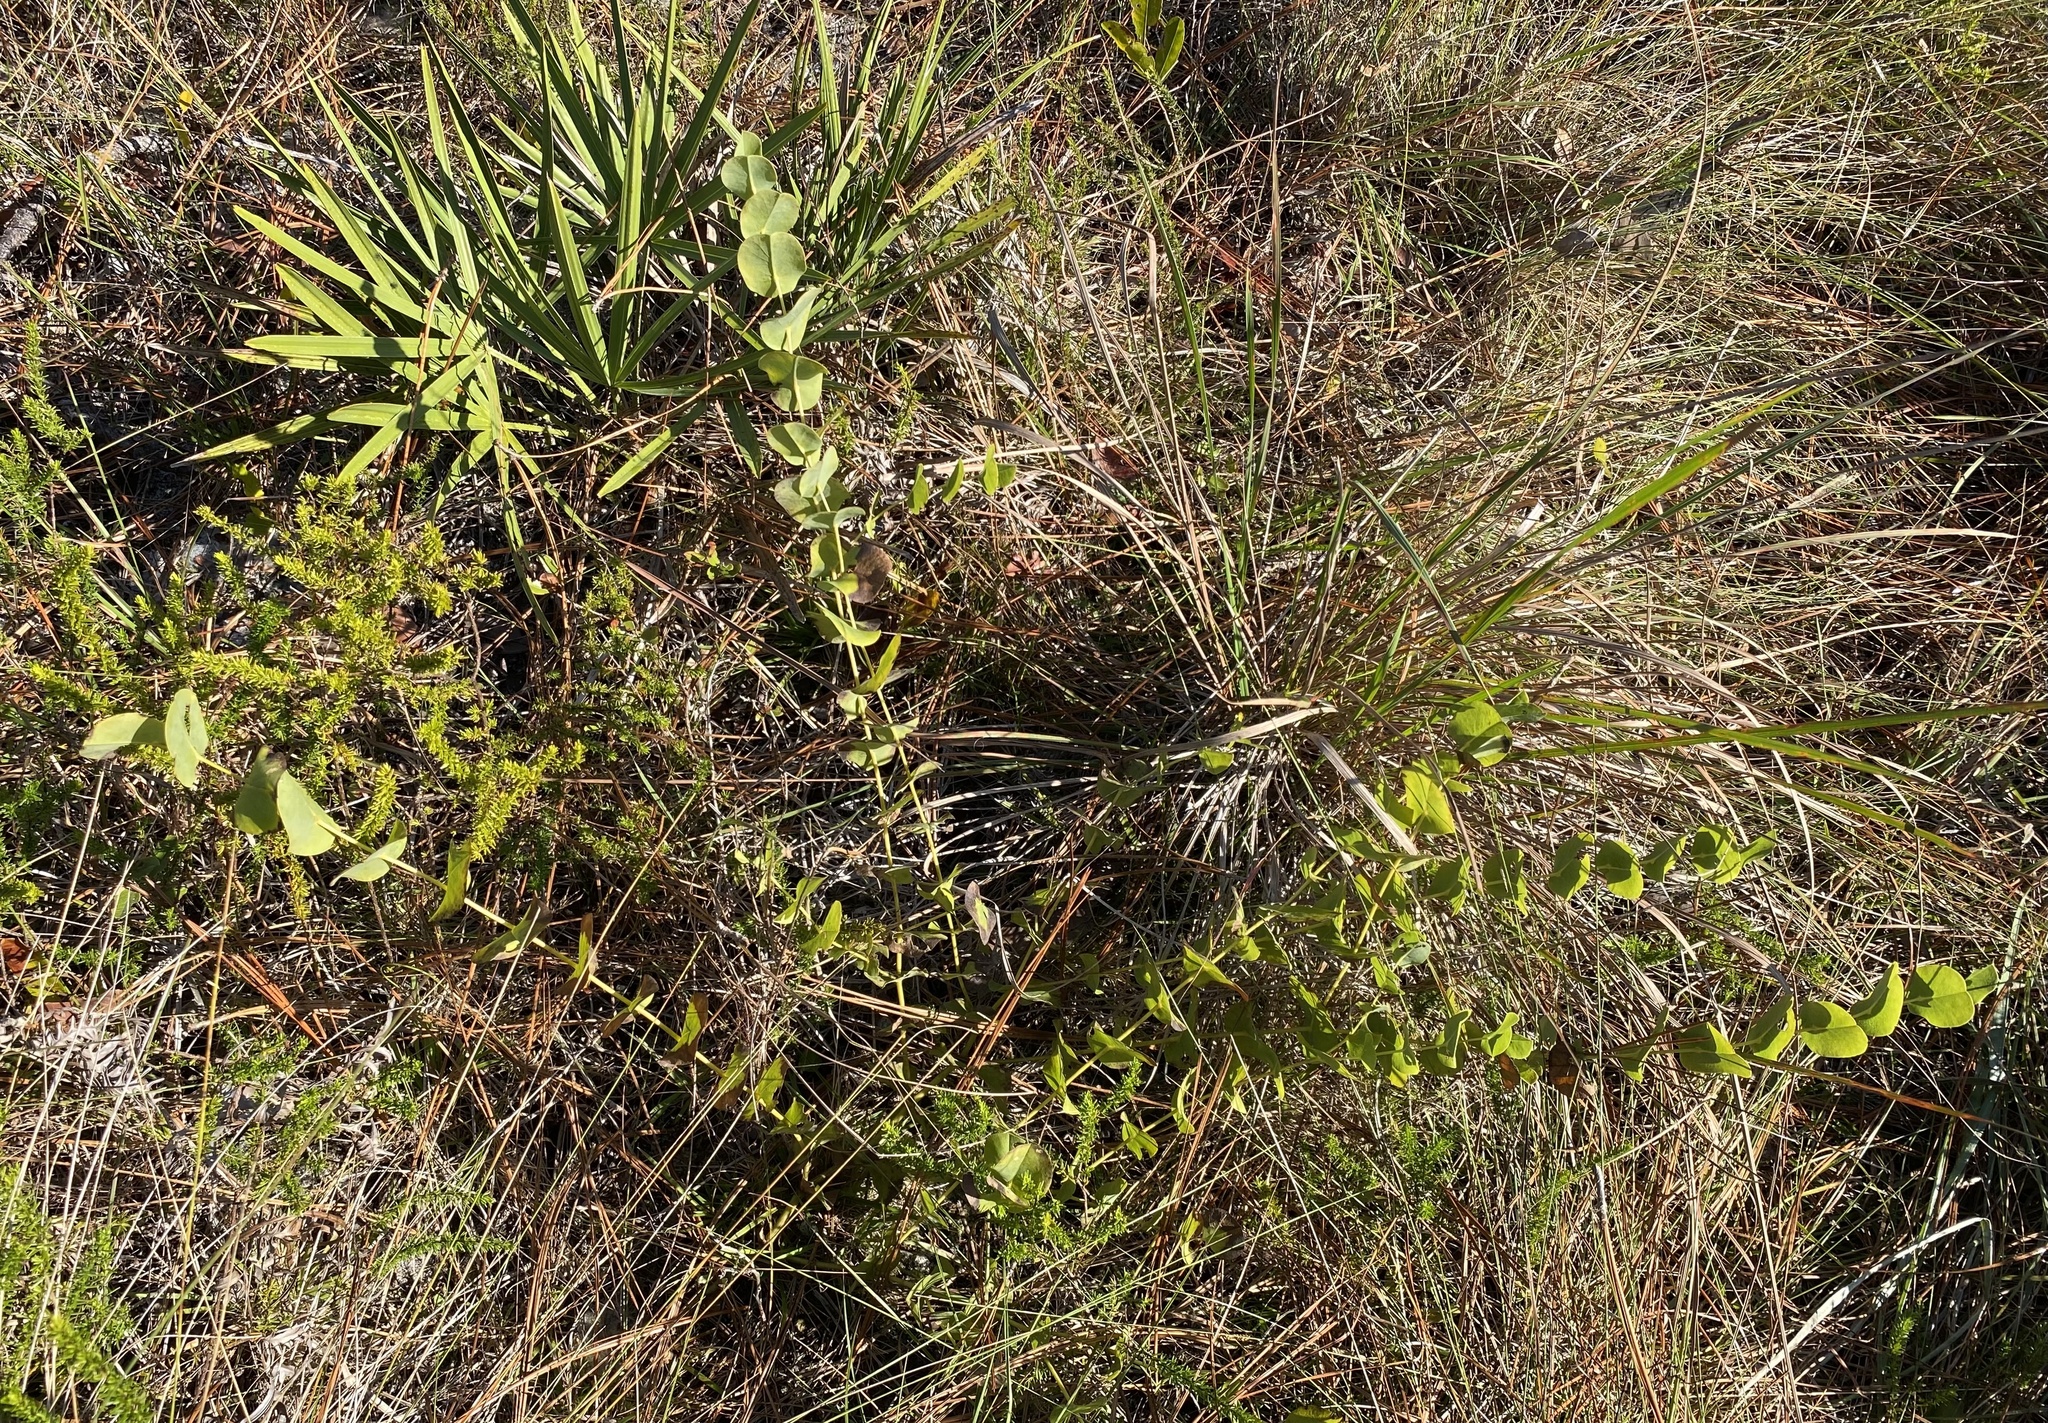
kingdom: Plantae
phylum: Tracheophyta
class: Magnoliopsida
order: Fabales
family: Fabaceae
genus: Baptisia
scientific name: Baptisia perfoliata
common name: Catbells
